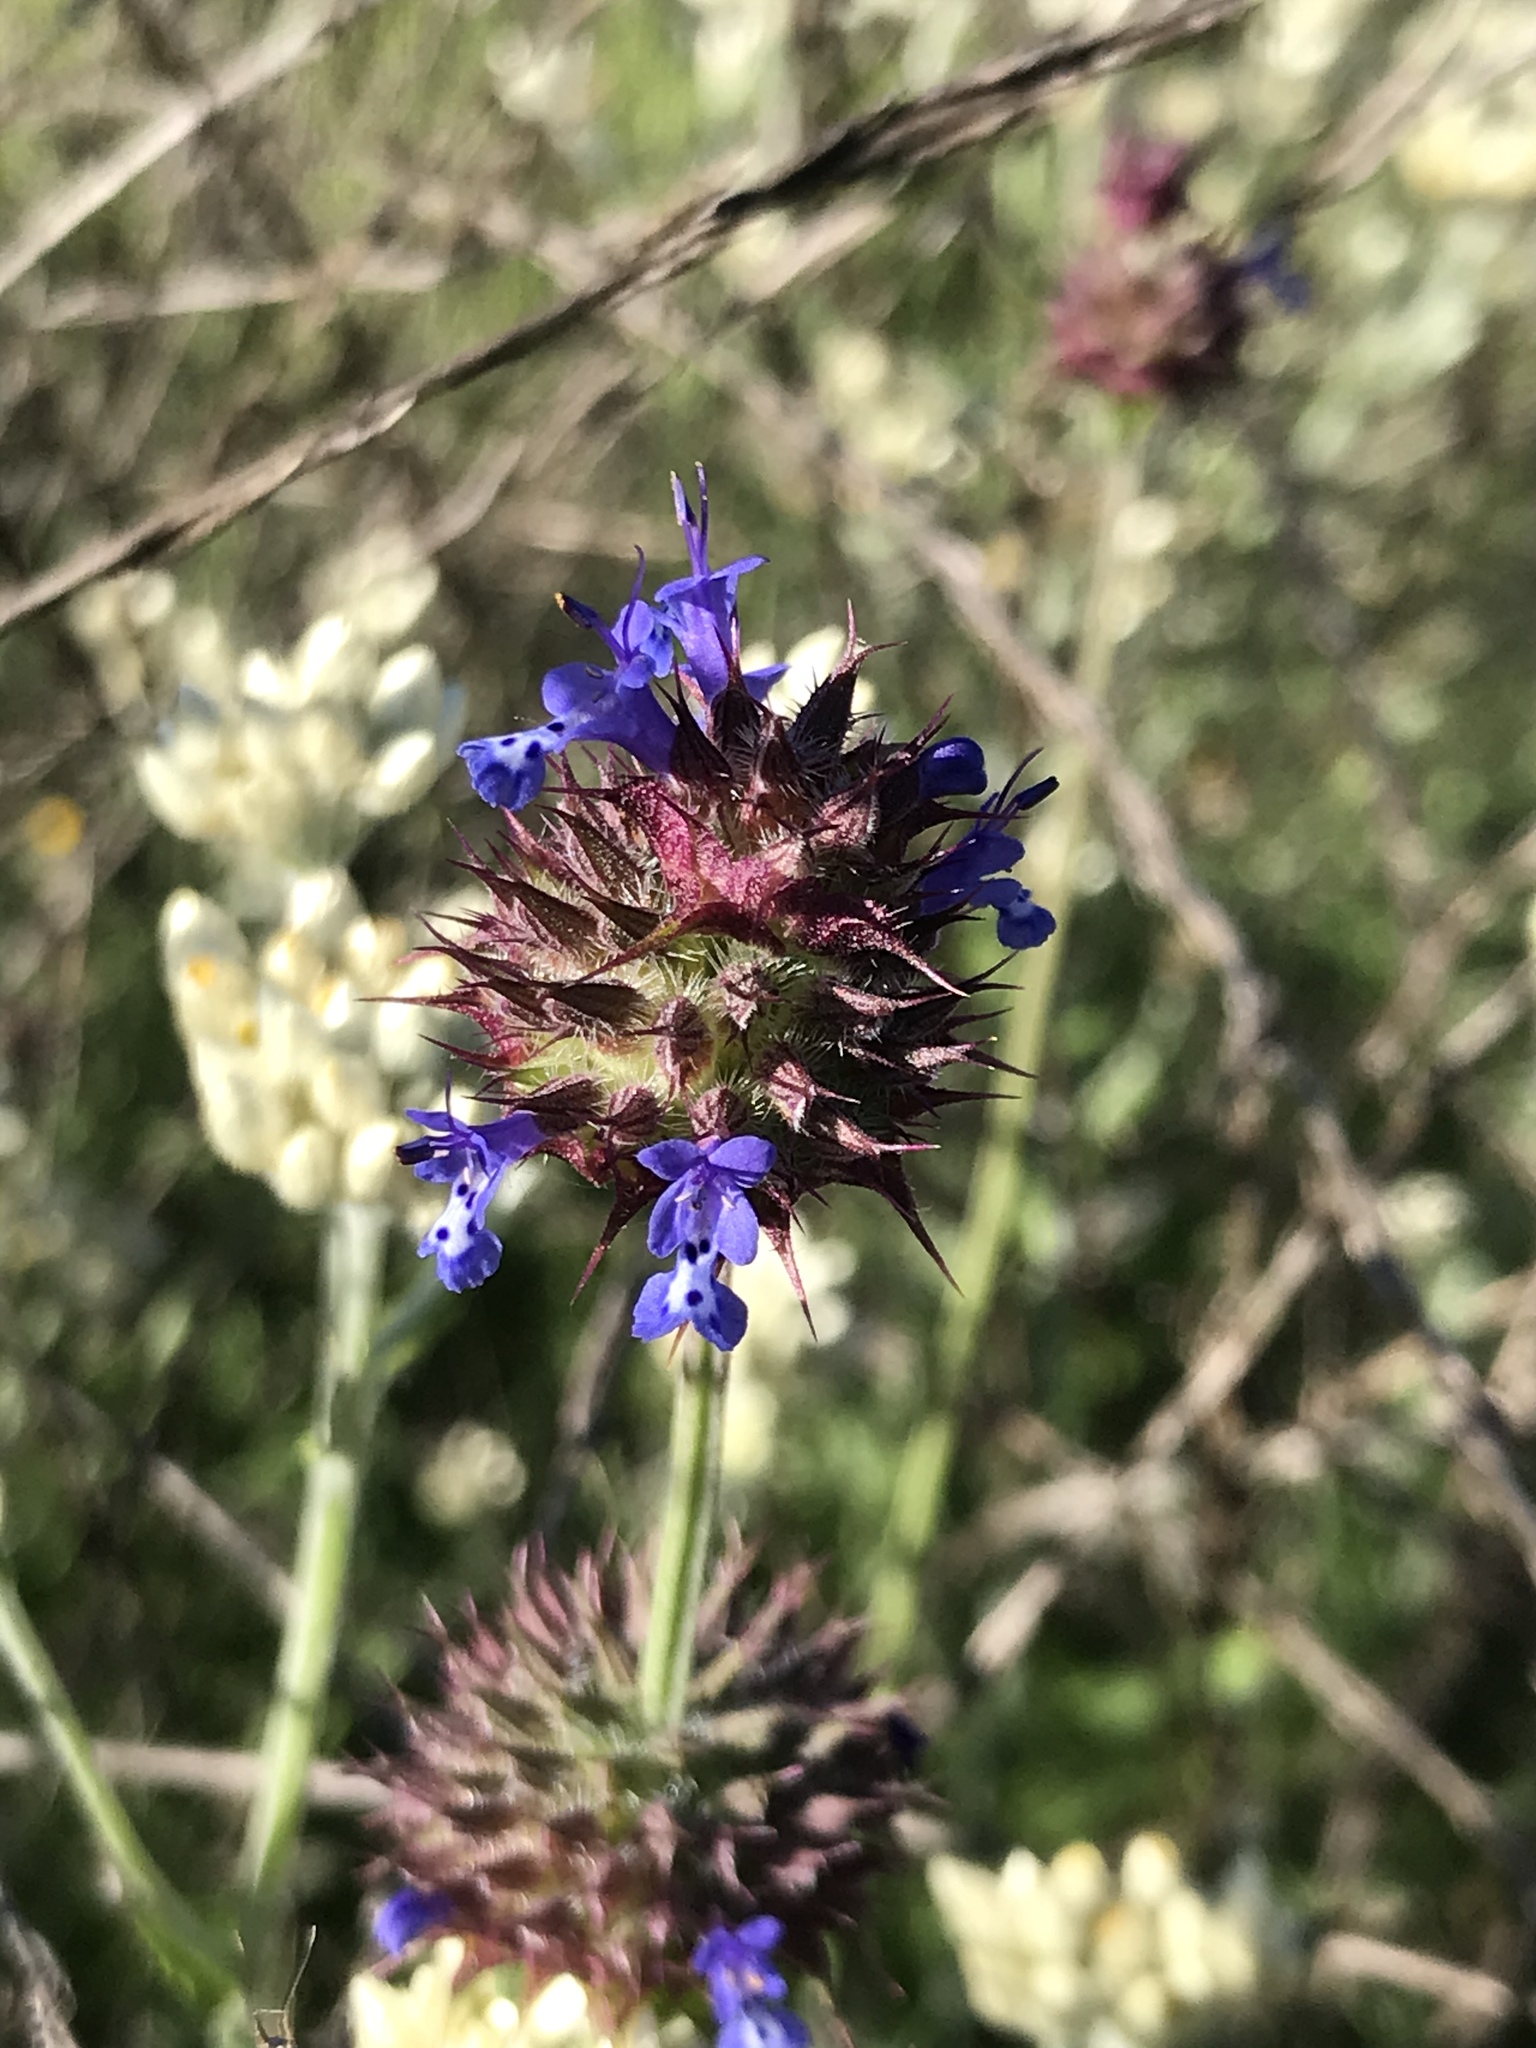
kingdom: Plantae
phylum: Tracheophyta
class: Magnoliopsida
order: Lamiales
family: Lamiaceae
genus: Salvia
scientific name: Salvia columbariae
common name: Chia
